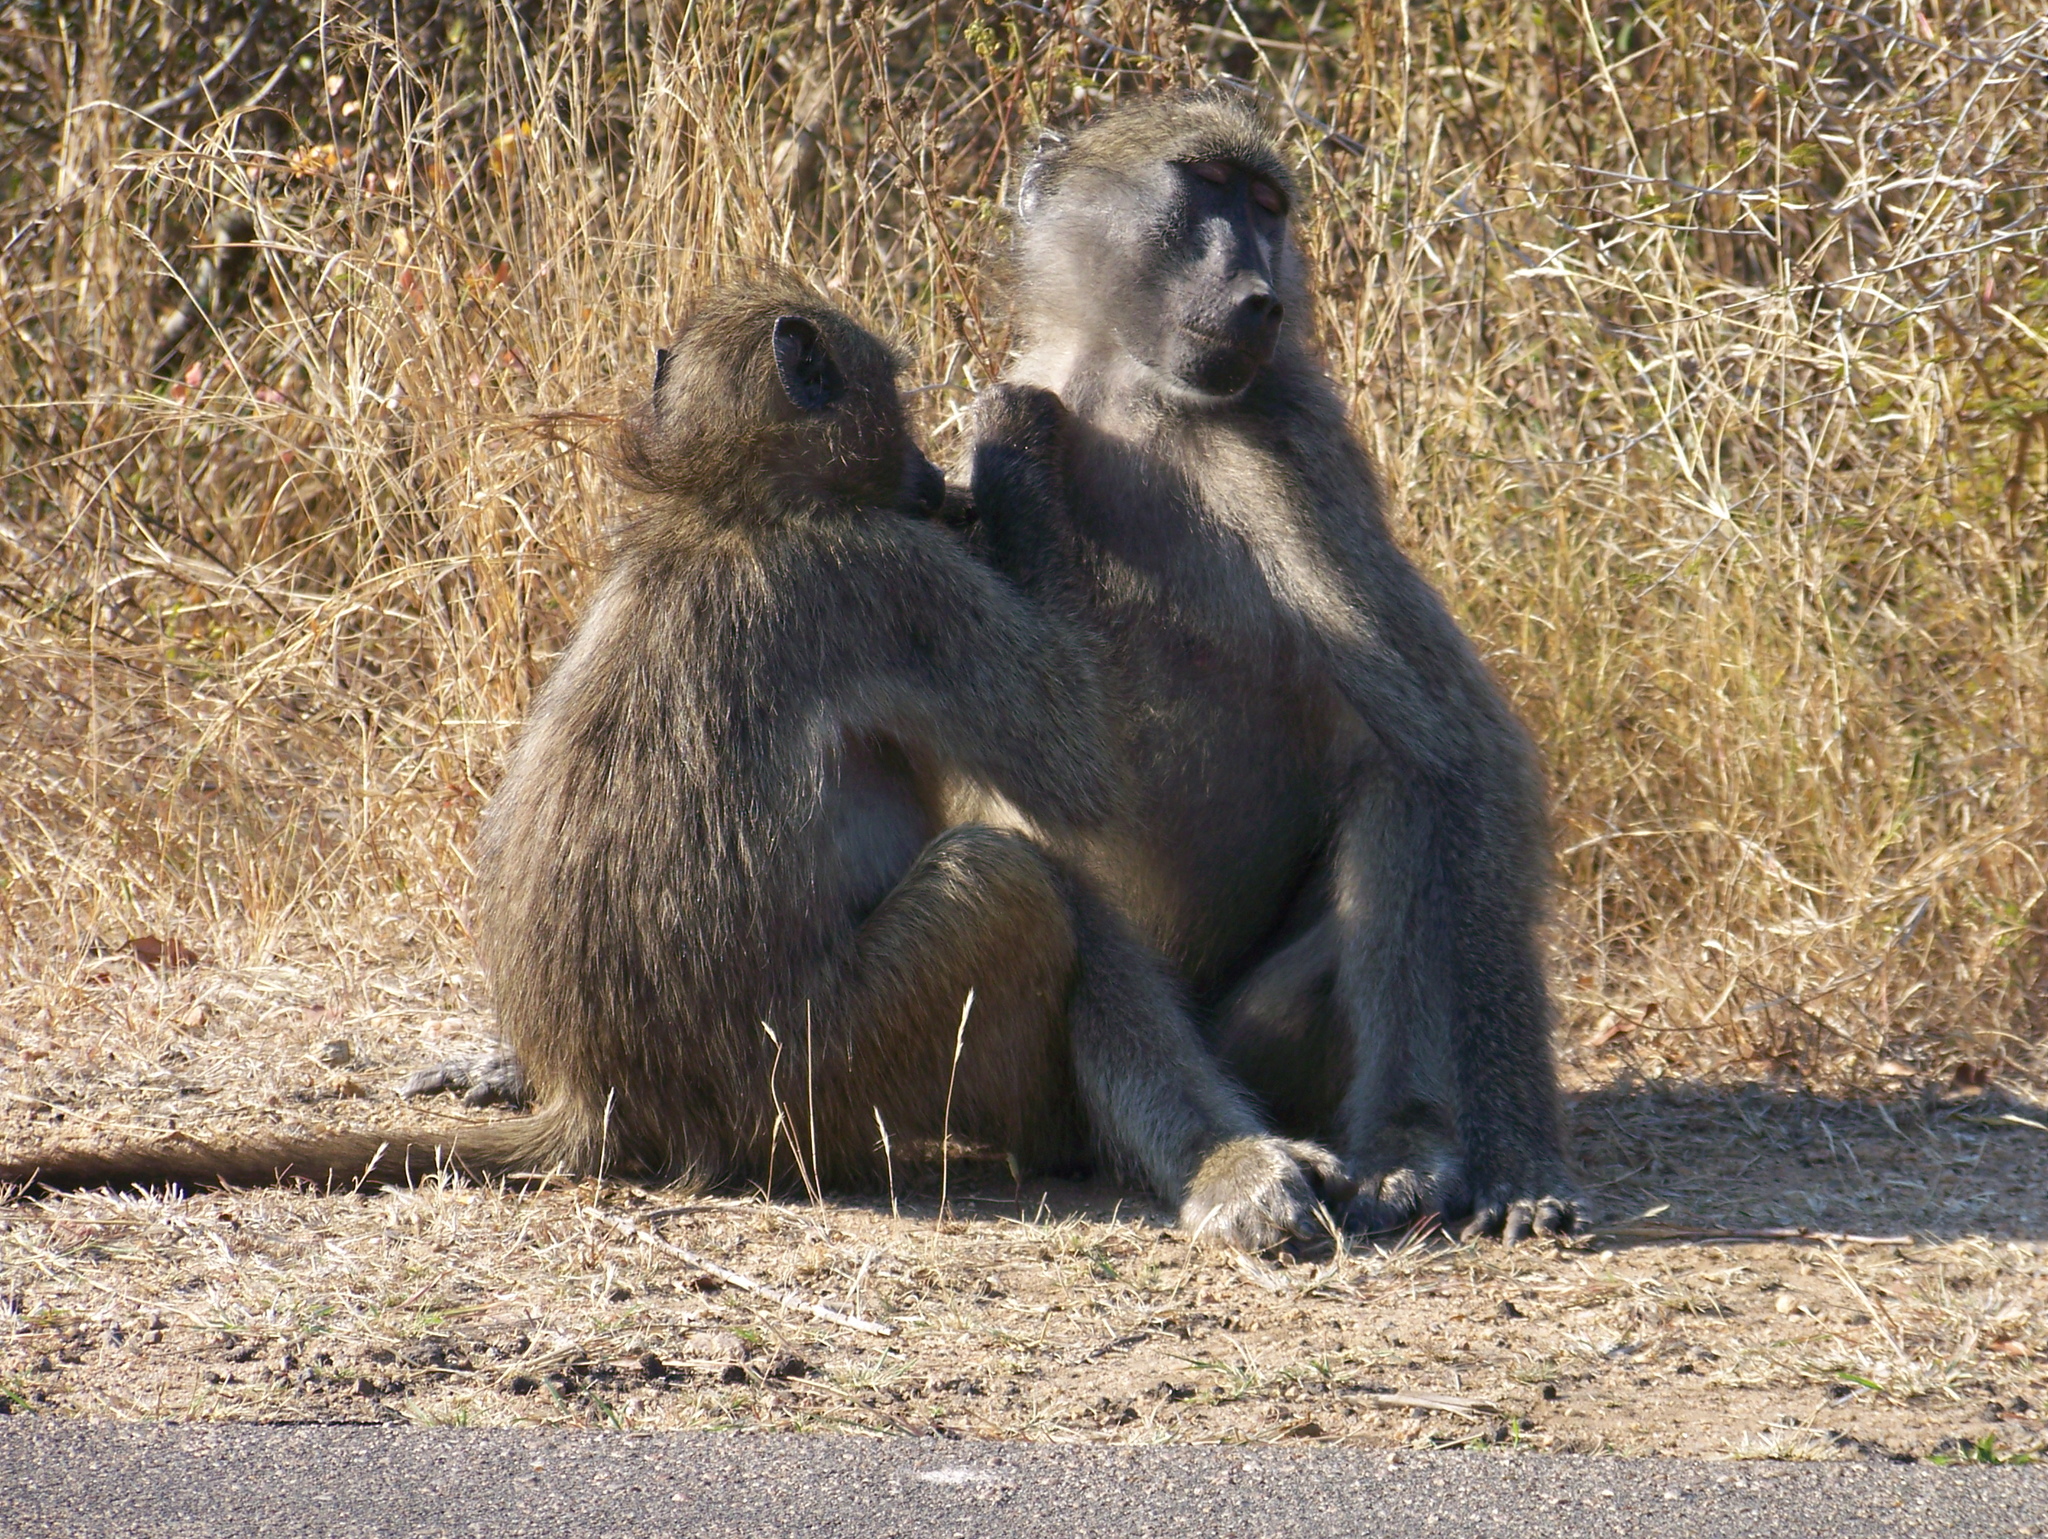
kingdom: Animalia
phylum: Chordata
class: Mammalia
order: Primates
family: Cercopithecidae
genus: Papio
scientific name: Papio ursinus
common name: Chacma baboon
